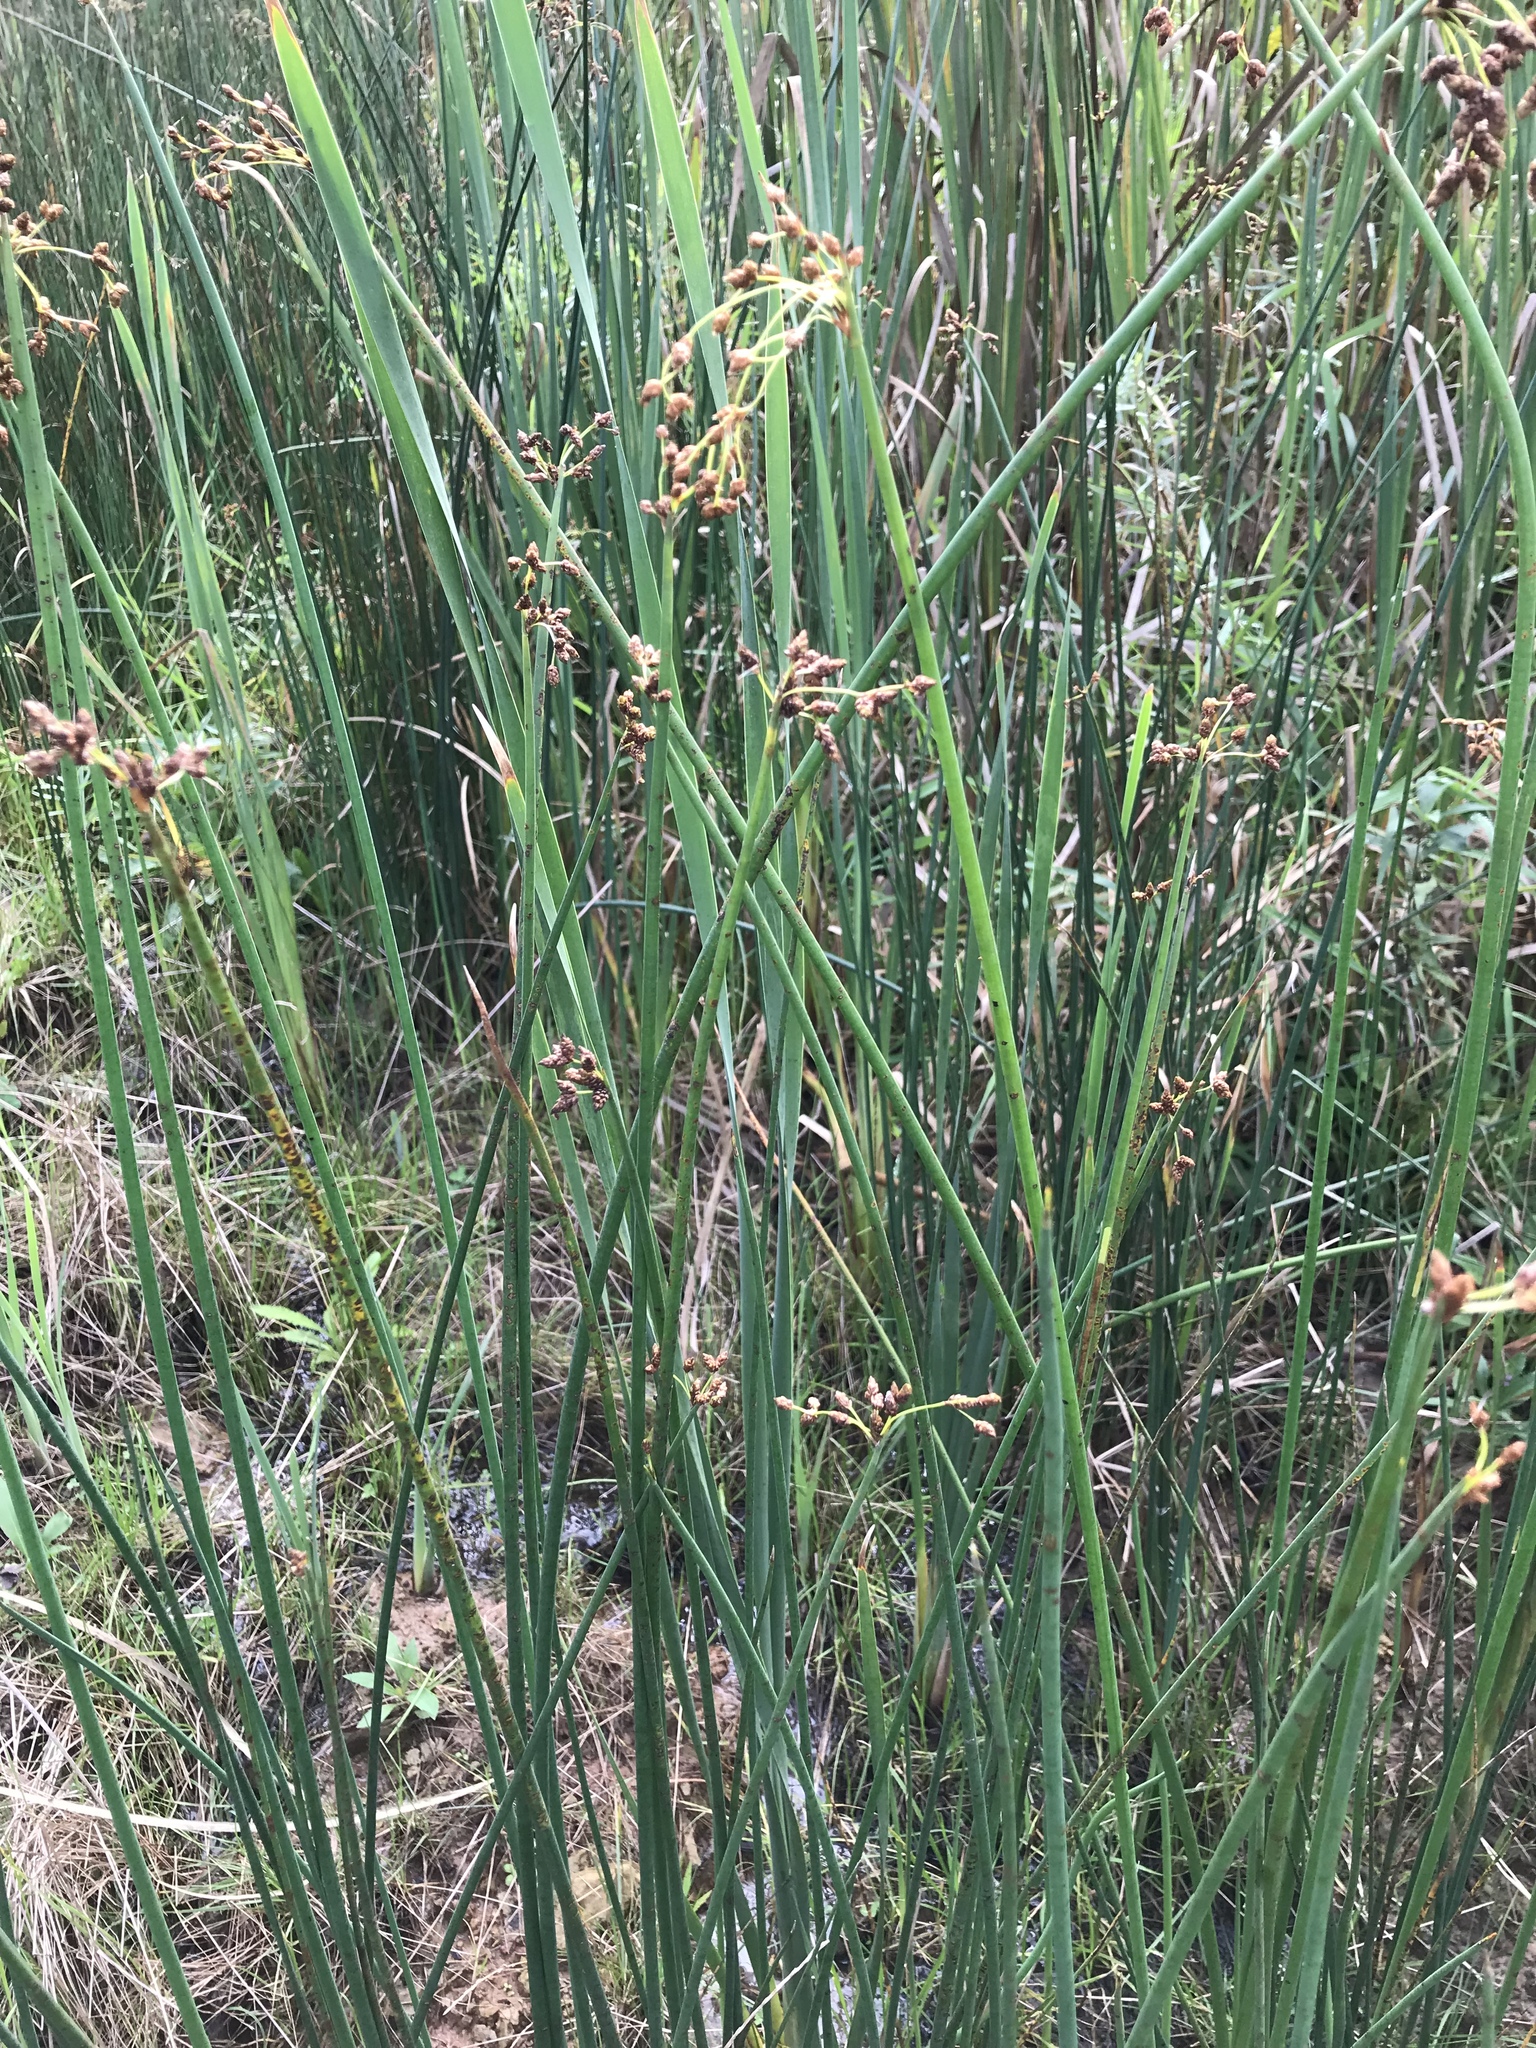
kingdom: Plantae
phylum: Tracheophyta
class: Liliopsida
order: Poales
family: Cyperaceae
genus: Schoenoplectus
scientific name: Schoenoplectus tabernaemontani
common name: Grey club-rush
